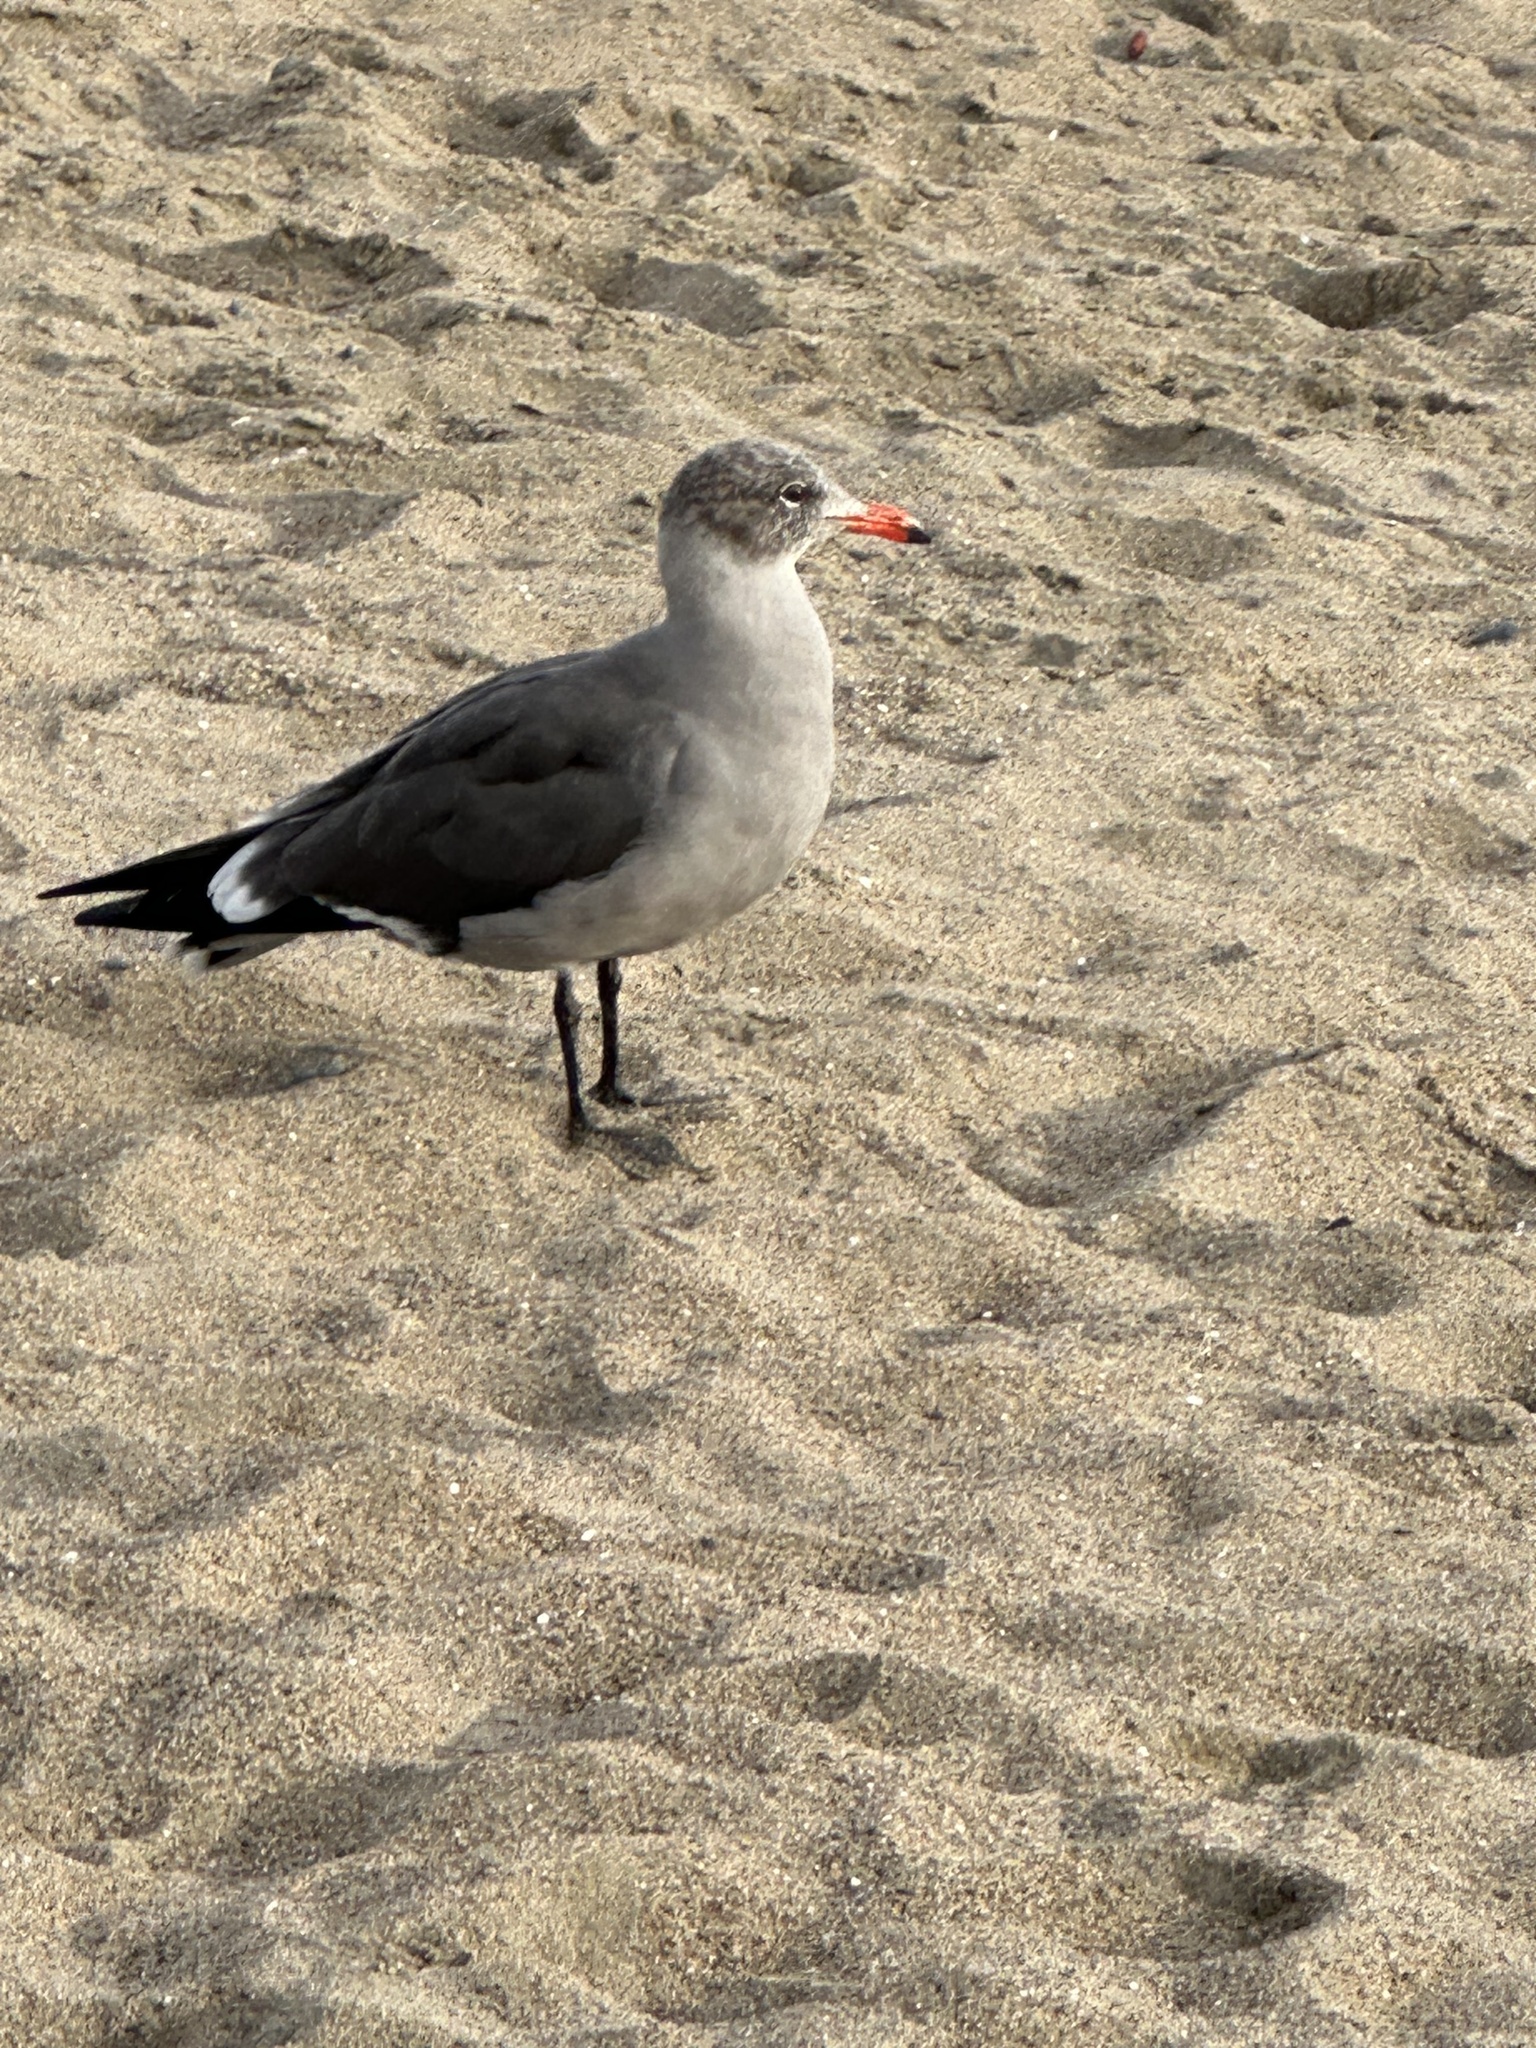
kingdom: Animalia
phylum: Chordata
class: Aves
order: Charadriiformes
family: Laridae
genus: Larus
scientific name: Larus heermanni
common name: Heermann's gull
